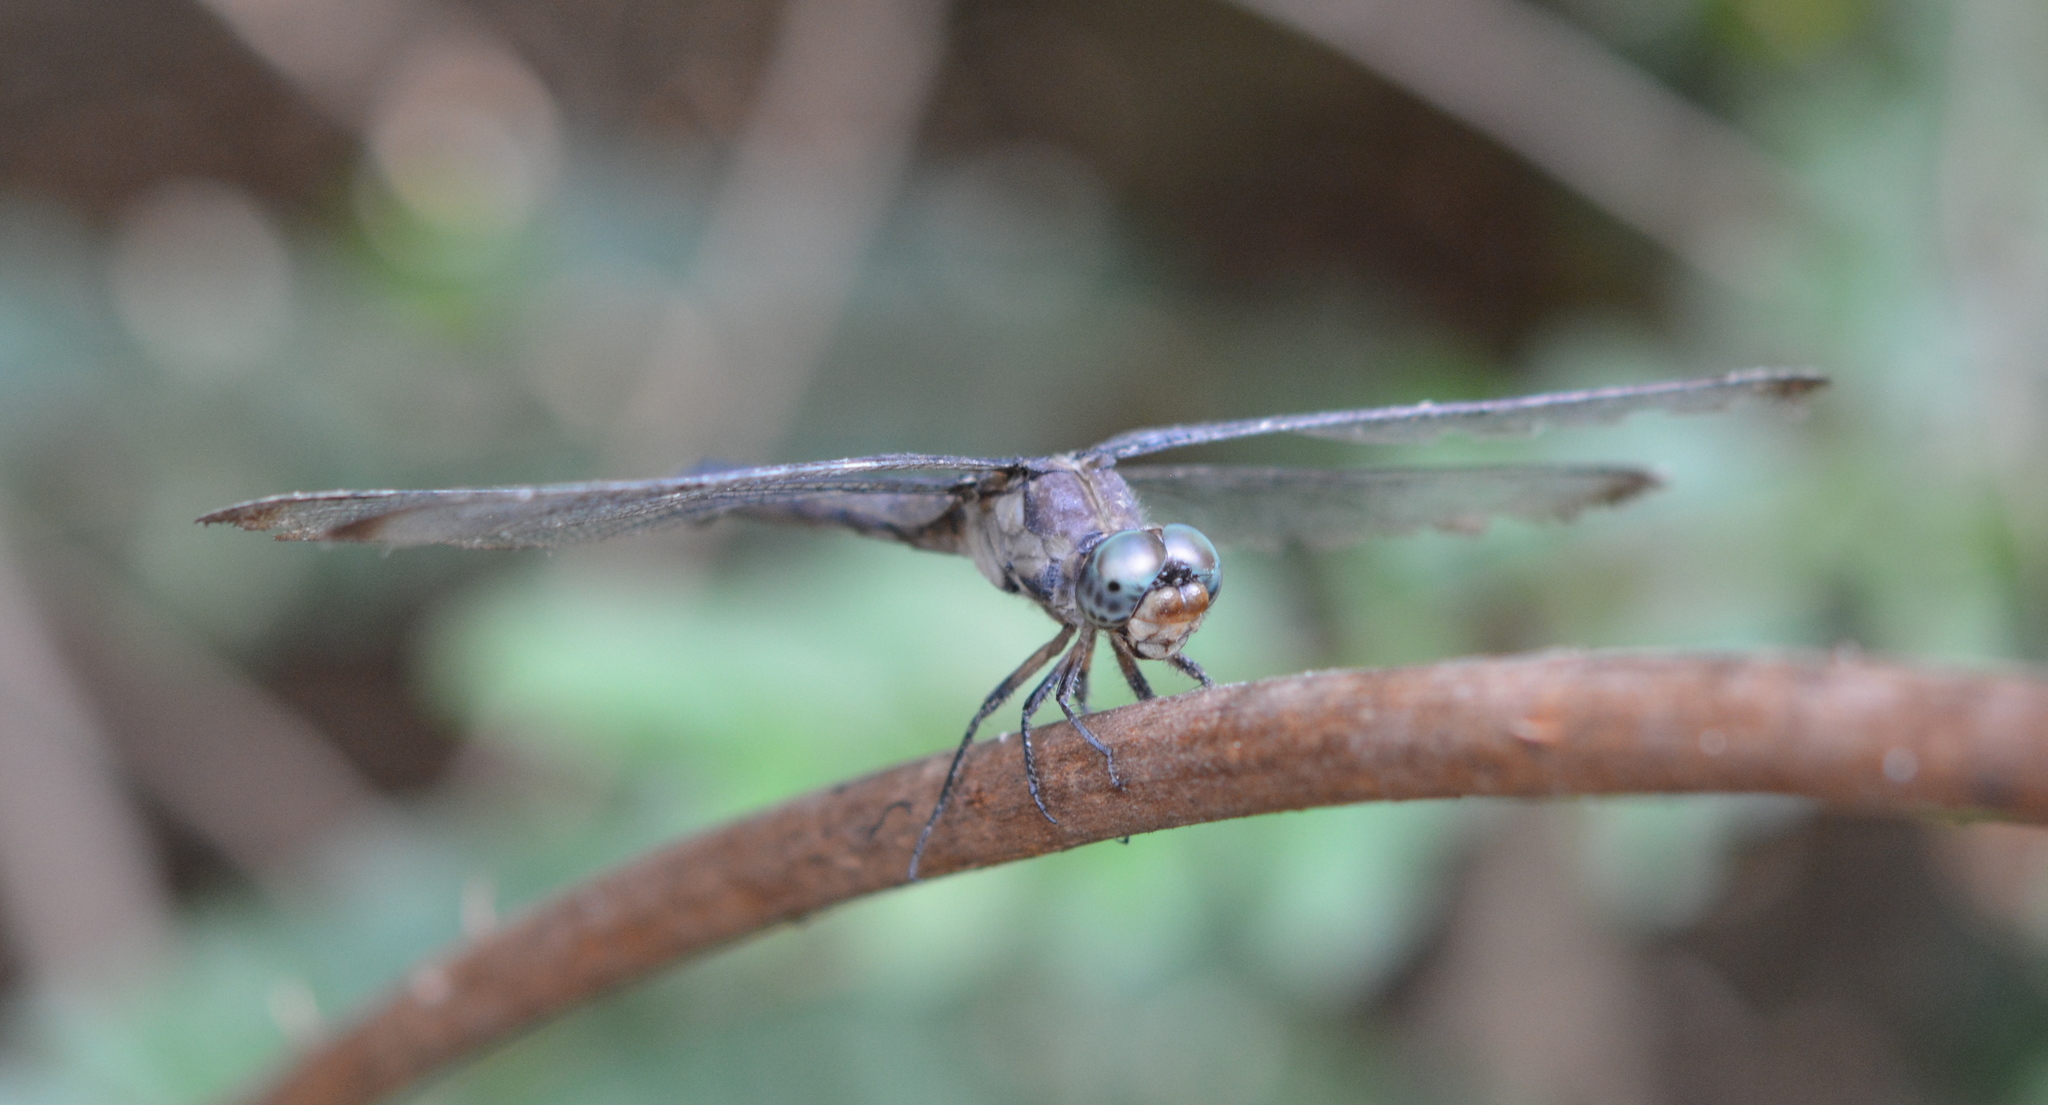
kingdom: Animalia
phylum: Arthropoda
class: Insecta
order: Odonata
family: Libellulidae
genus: Libellula
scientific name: Libellula vibrans
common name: Great blue skimmer
